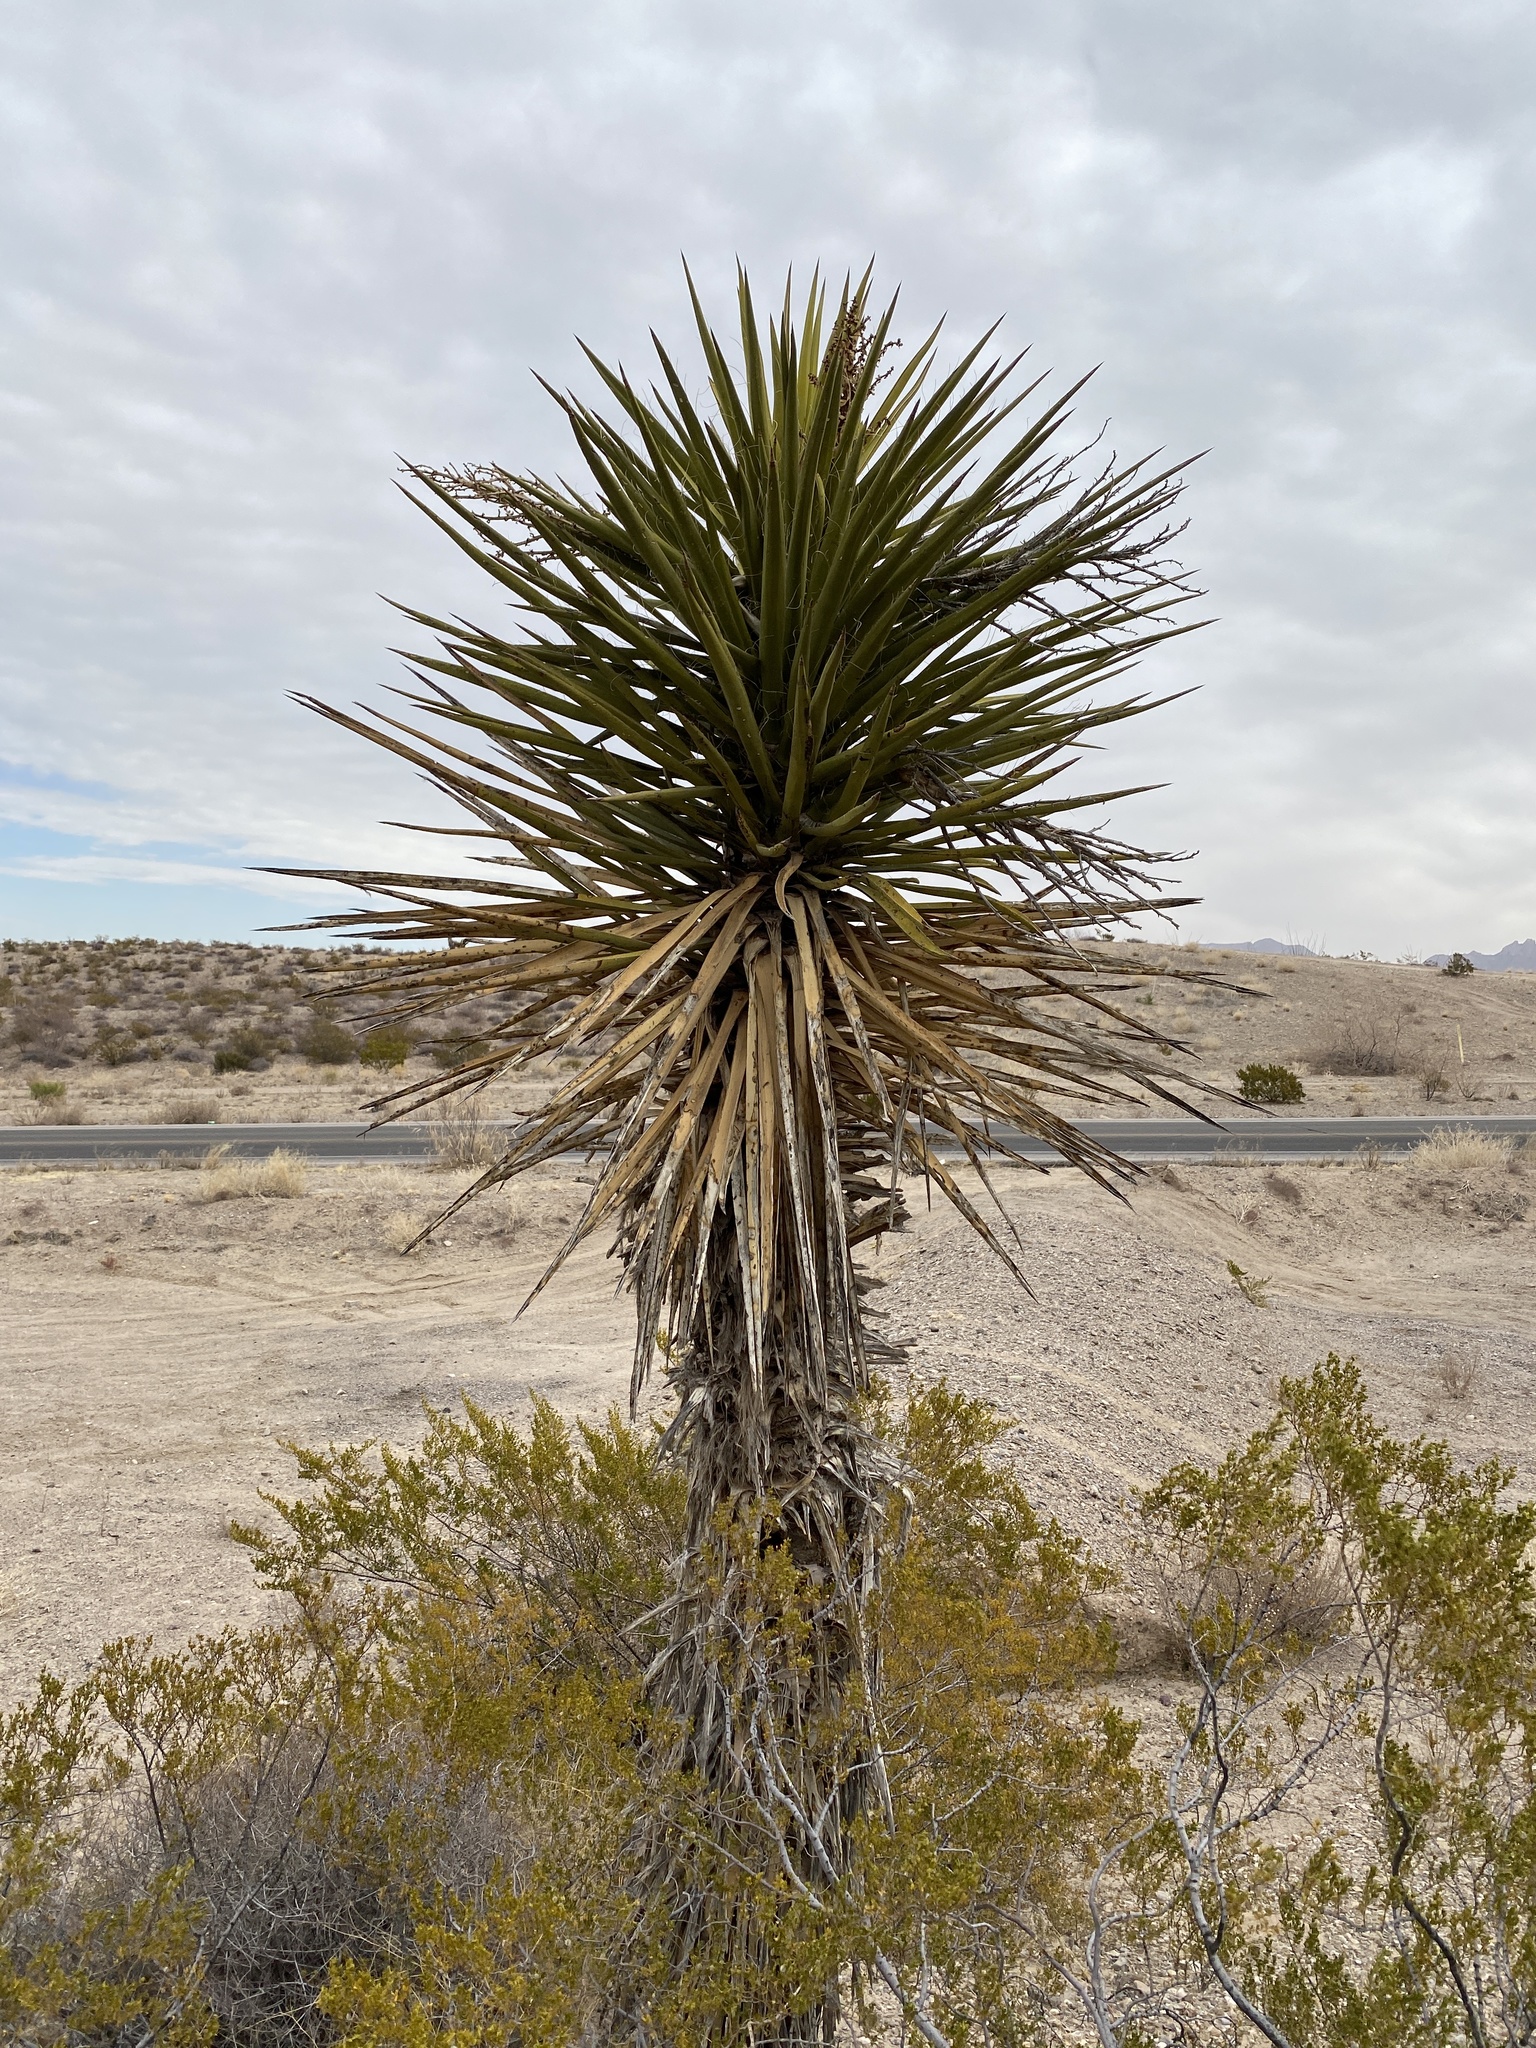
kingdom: Plantae
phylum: Tracheophyta
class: Liliopsida
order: Asparagales
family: Asparagaceae
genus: Yucca
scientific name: Yucca treculiana
